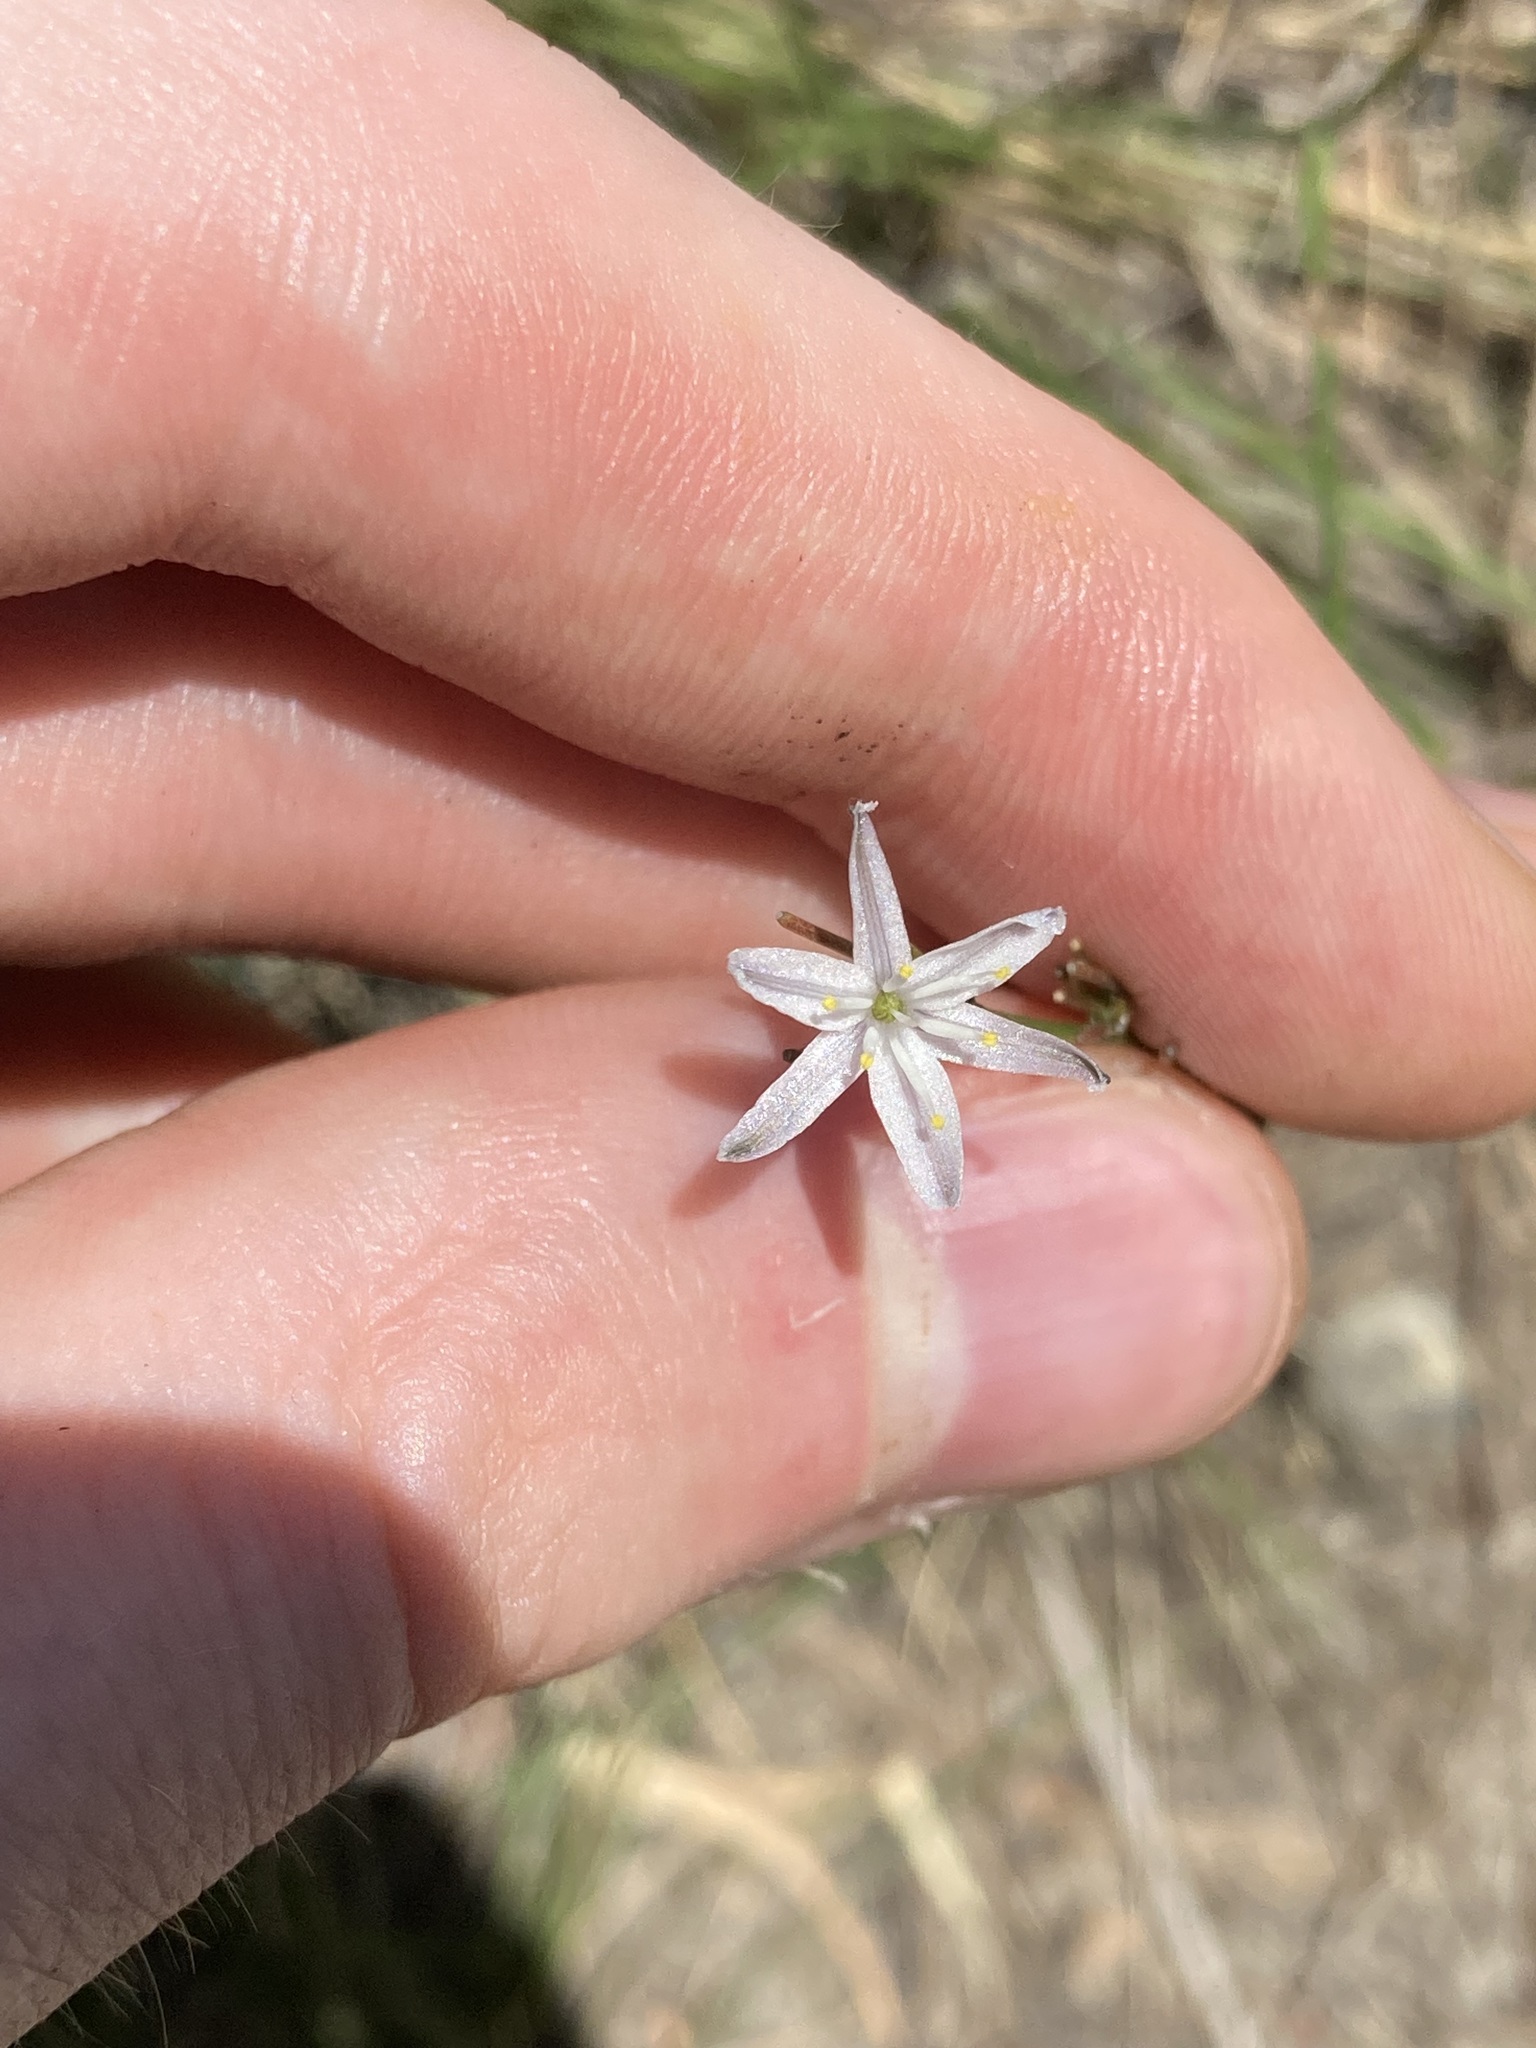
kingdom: Plantae
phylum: Tracheophyta
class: Liliopsida
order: Asparagales
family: Asphodelaceae
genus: Caesia
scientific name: Caesia parviflora
